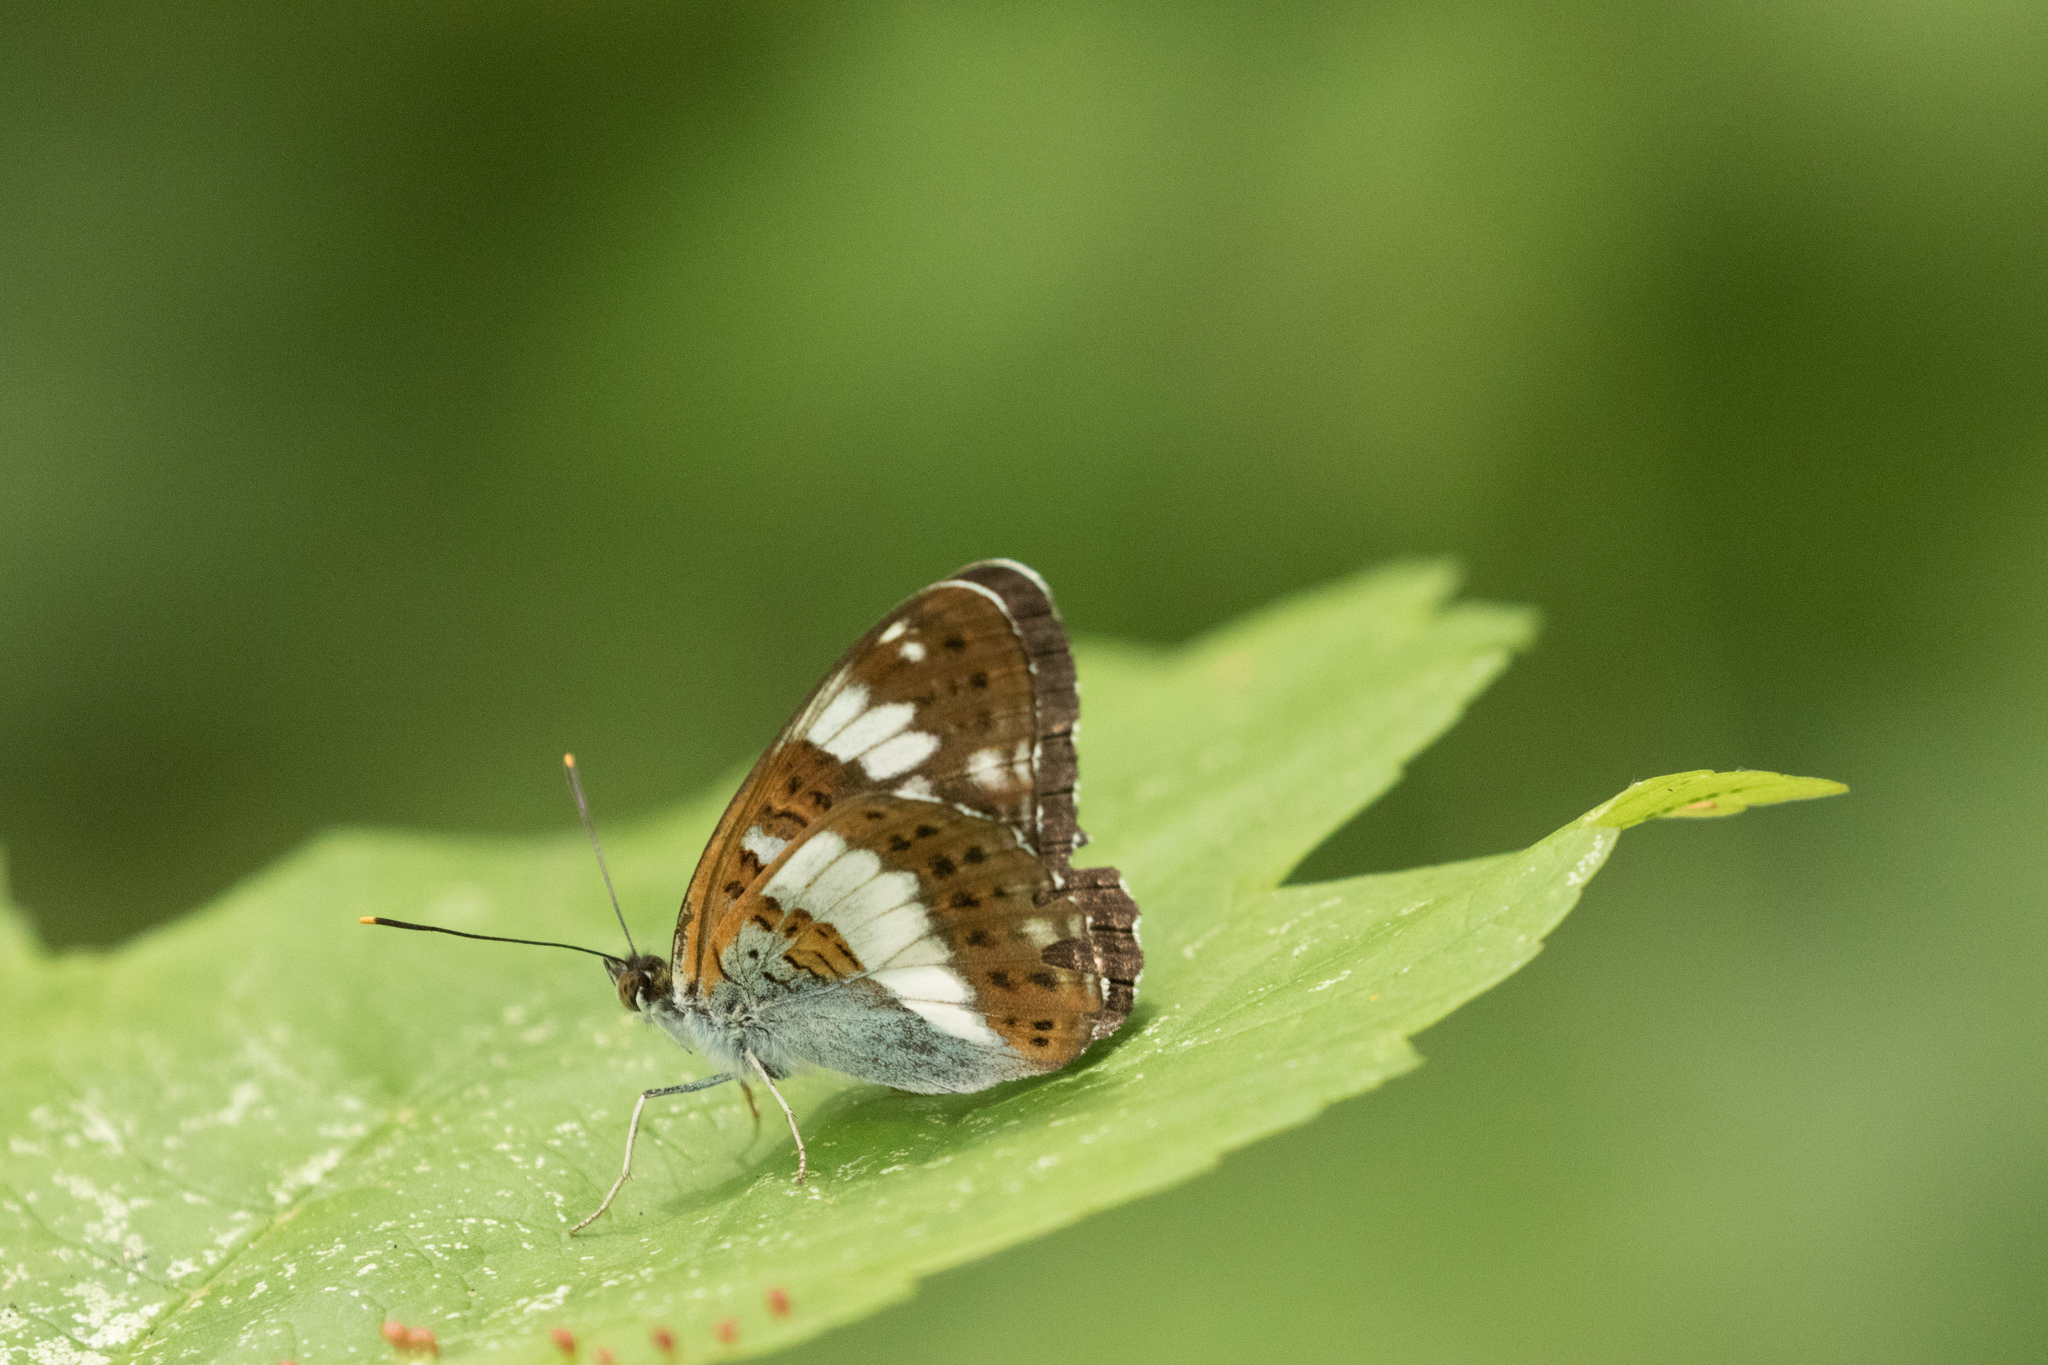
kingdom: Animalia
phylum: Arthropoda
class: Insecta
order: Lepidoptera
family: Nymphalidae
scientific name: Nymphalidae
